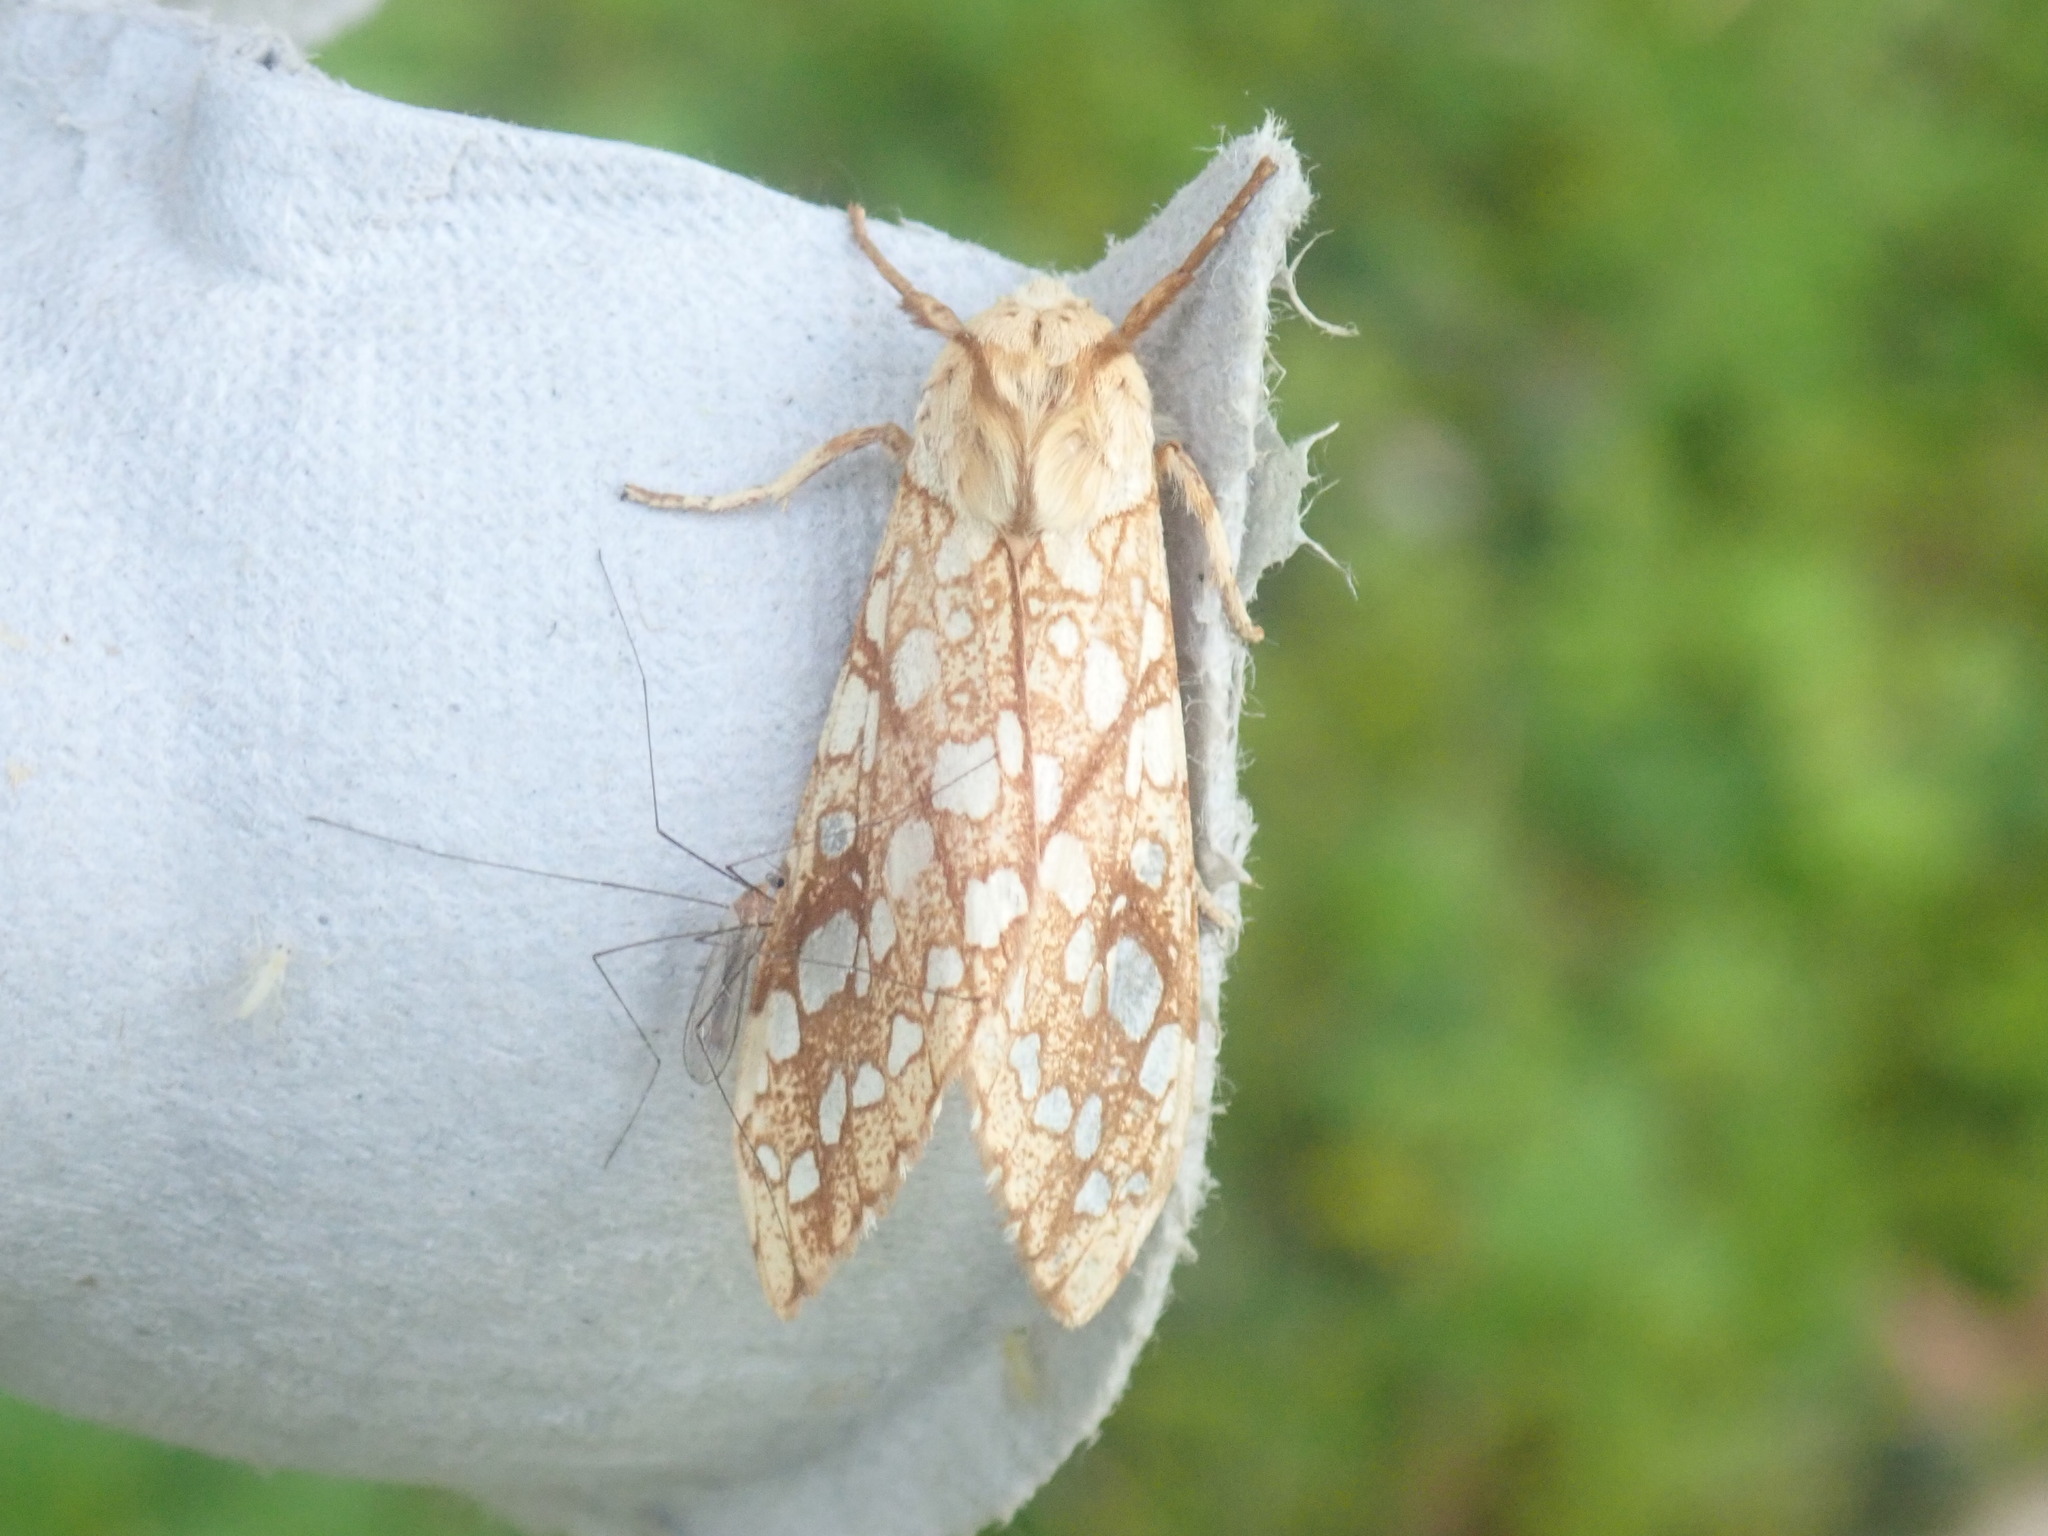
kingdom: Animalia
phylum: Arthropoda
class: Insecta
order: Lepidoptera
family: Erebidae
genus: Lophocampa
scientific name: Lophocampa caryae
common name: Hickory tussock moth
